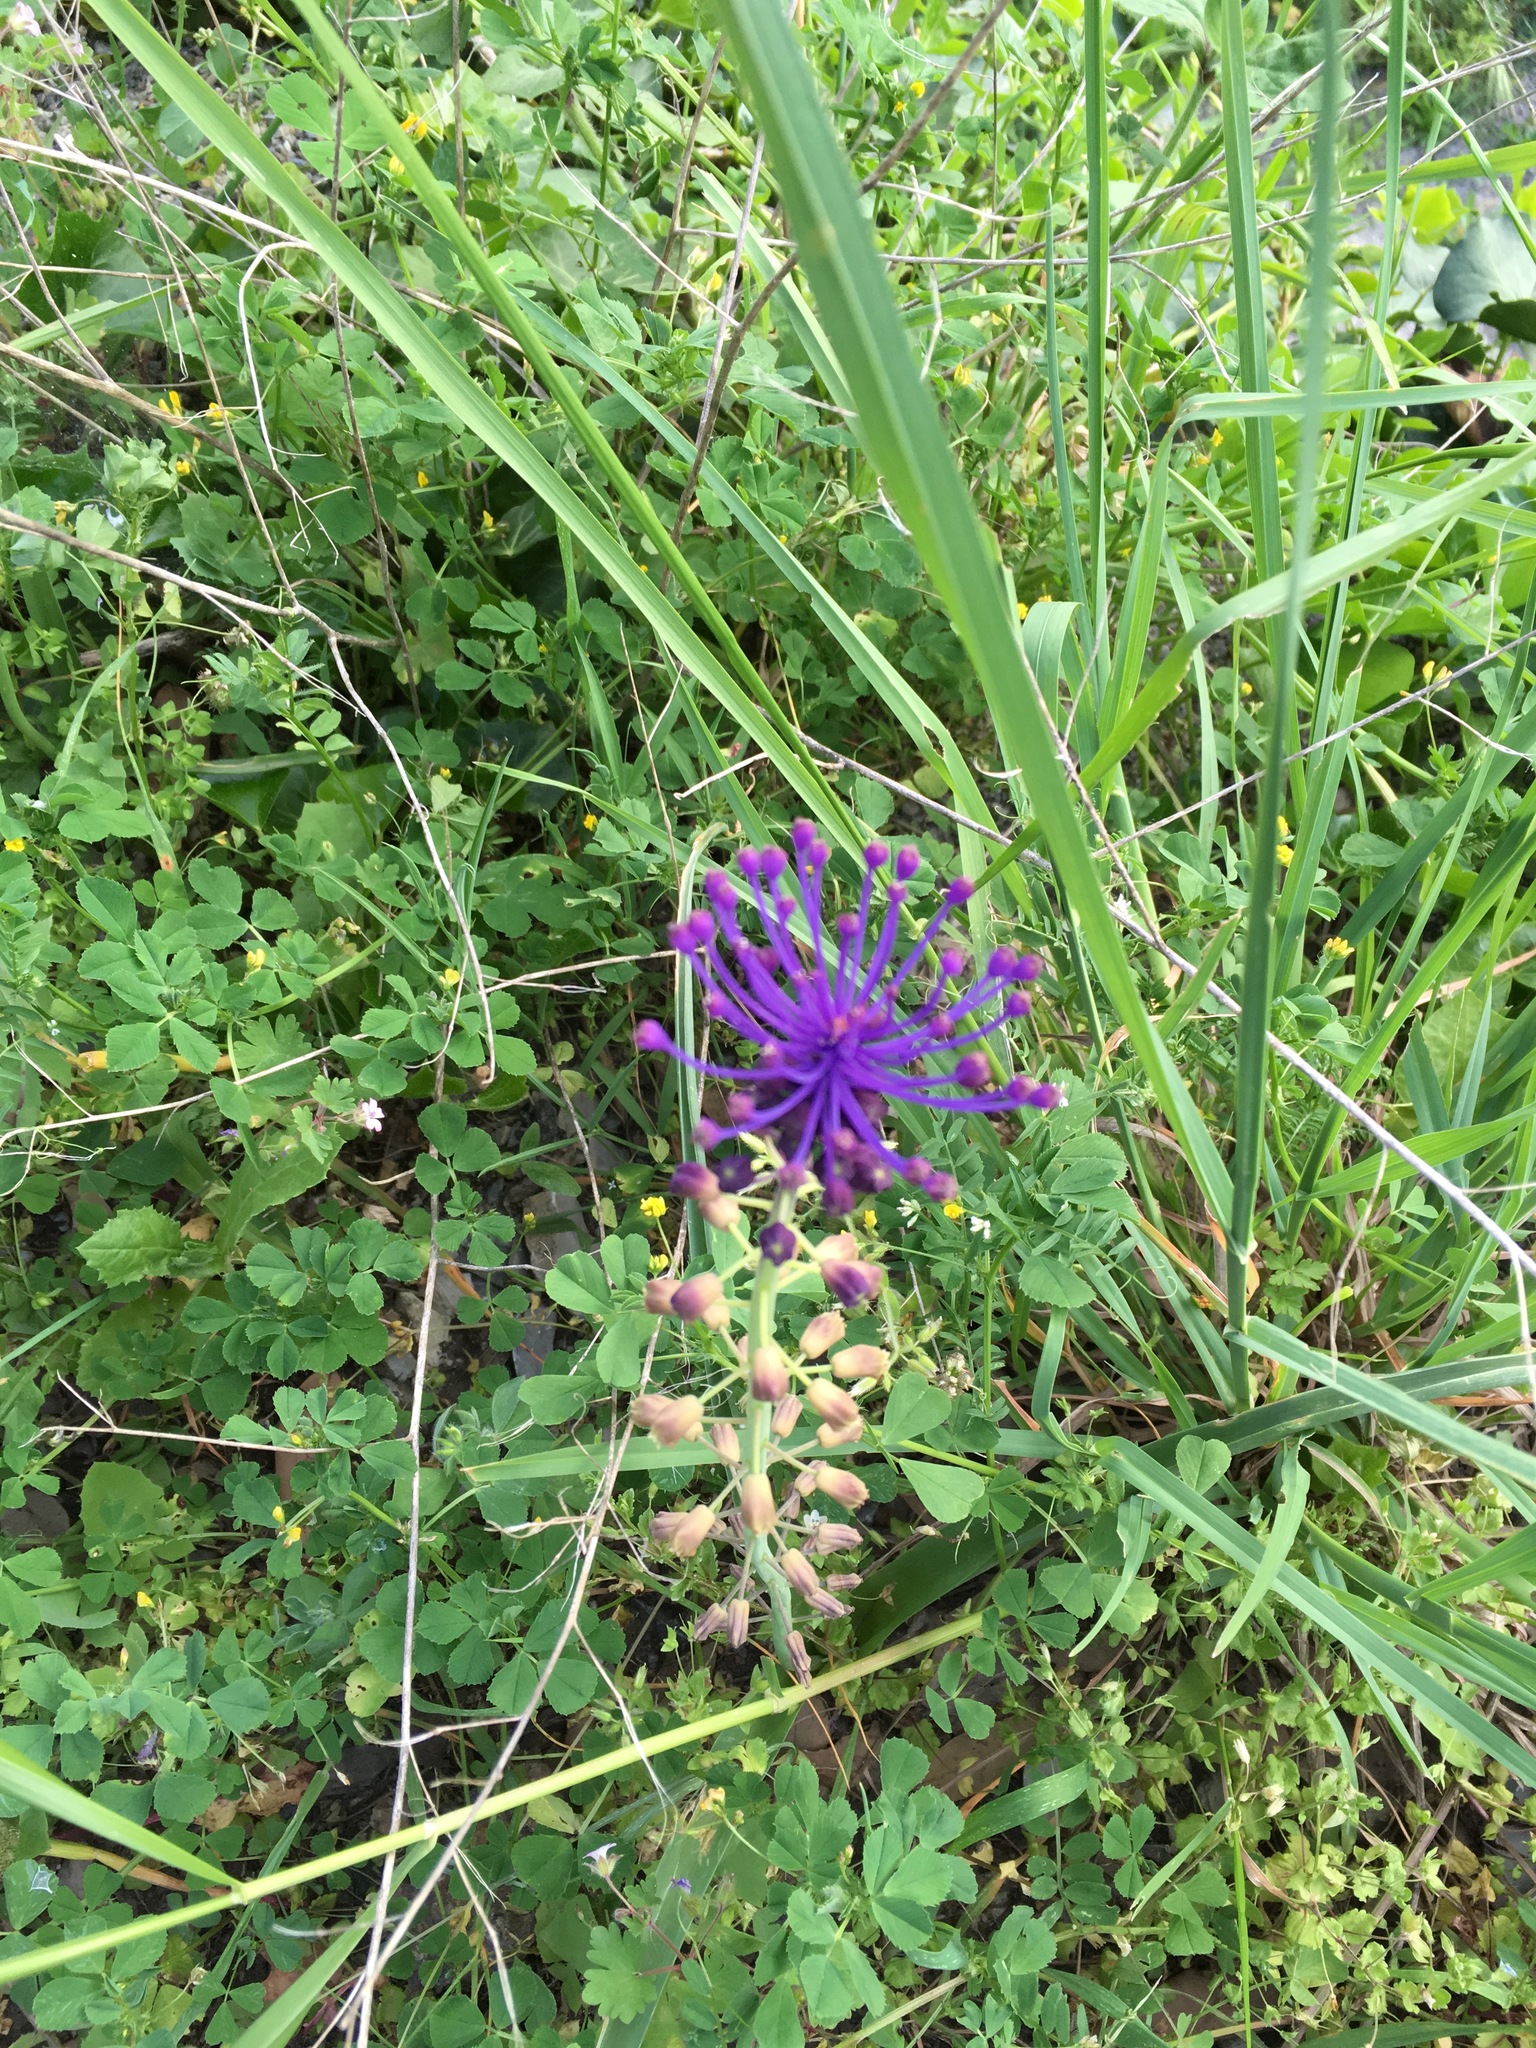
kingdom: Plantae
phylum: Tracheophyta
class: Liliopsida
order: Asparagales
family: Asparagaceae
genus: Muscari
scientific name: Muscari comosum
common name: Tassel hyacinth
